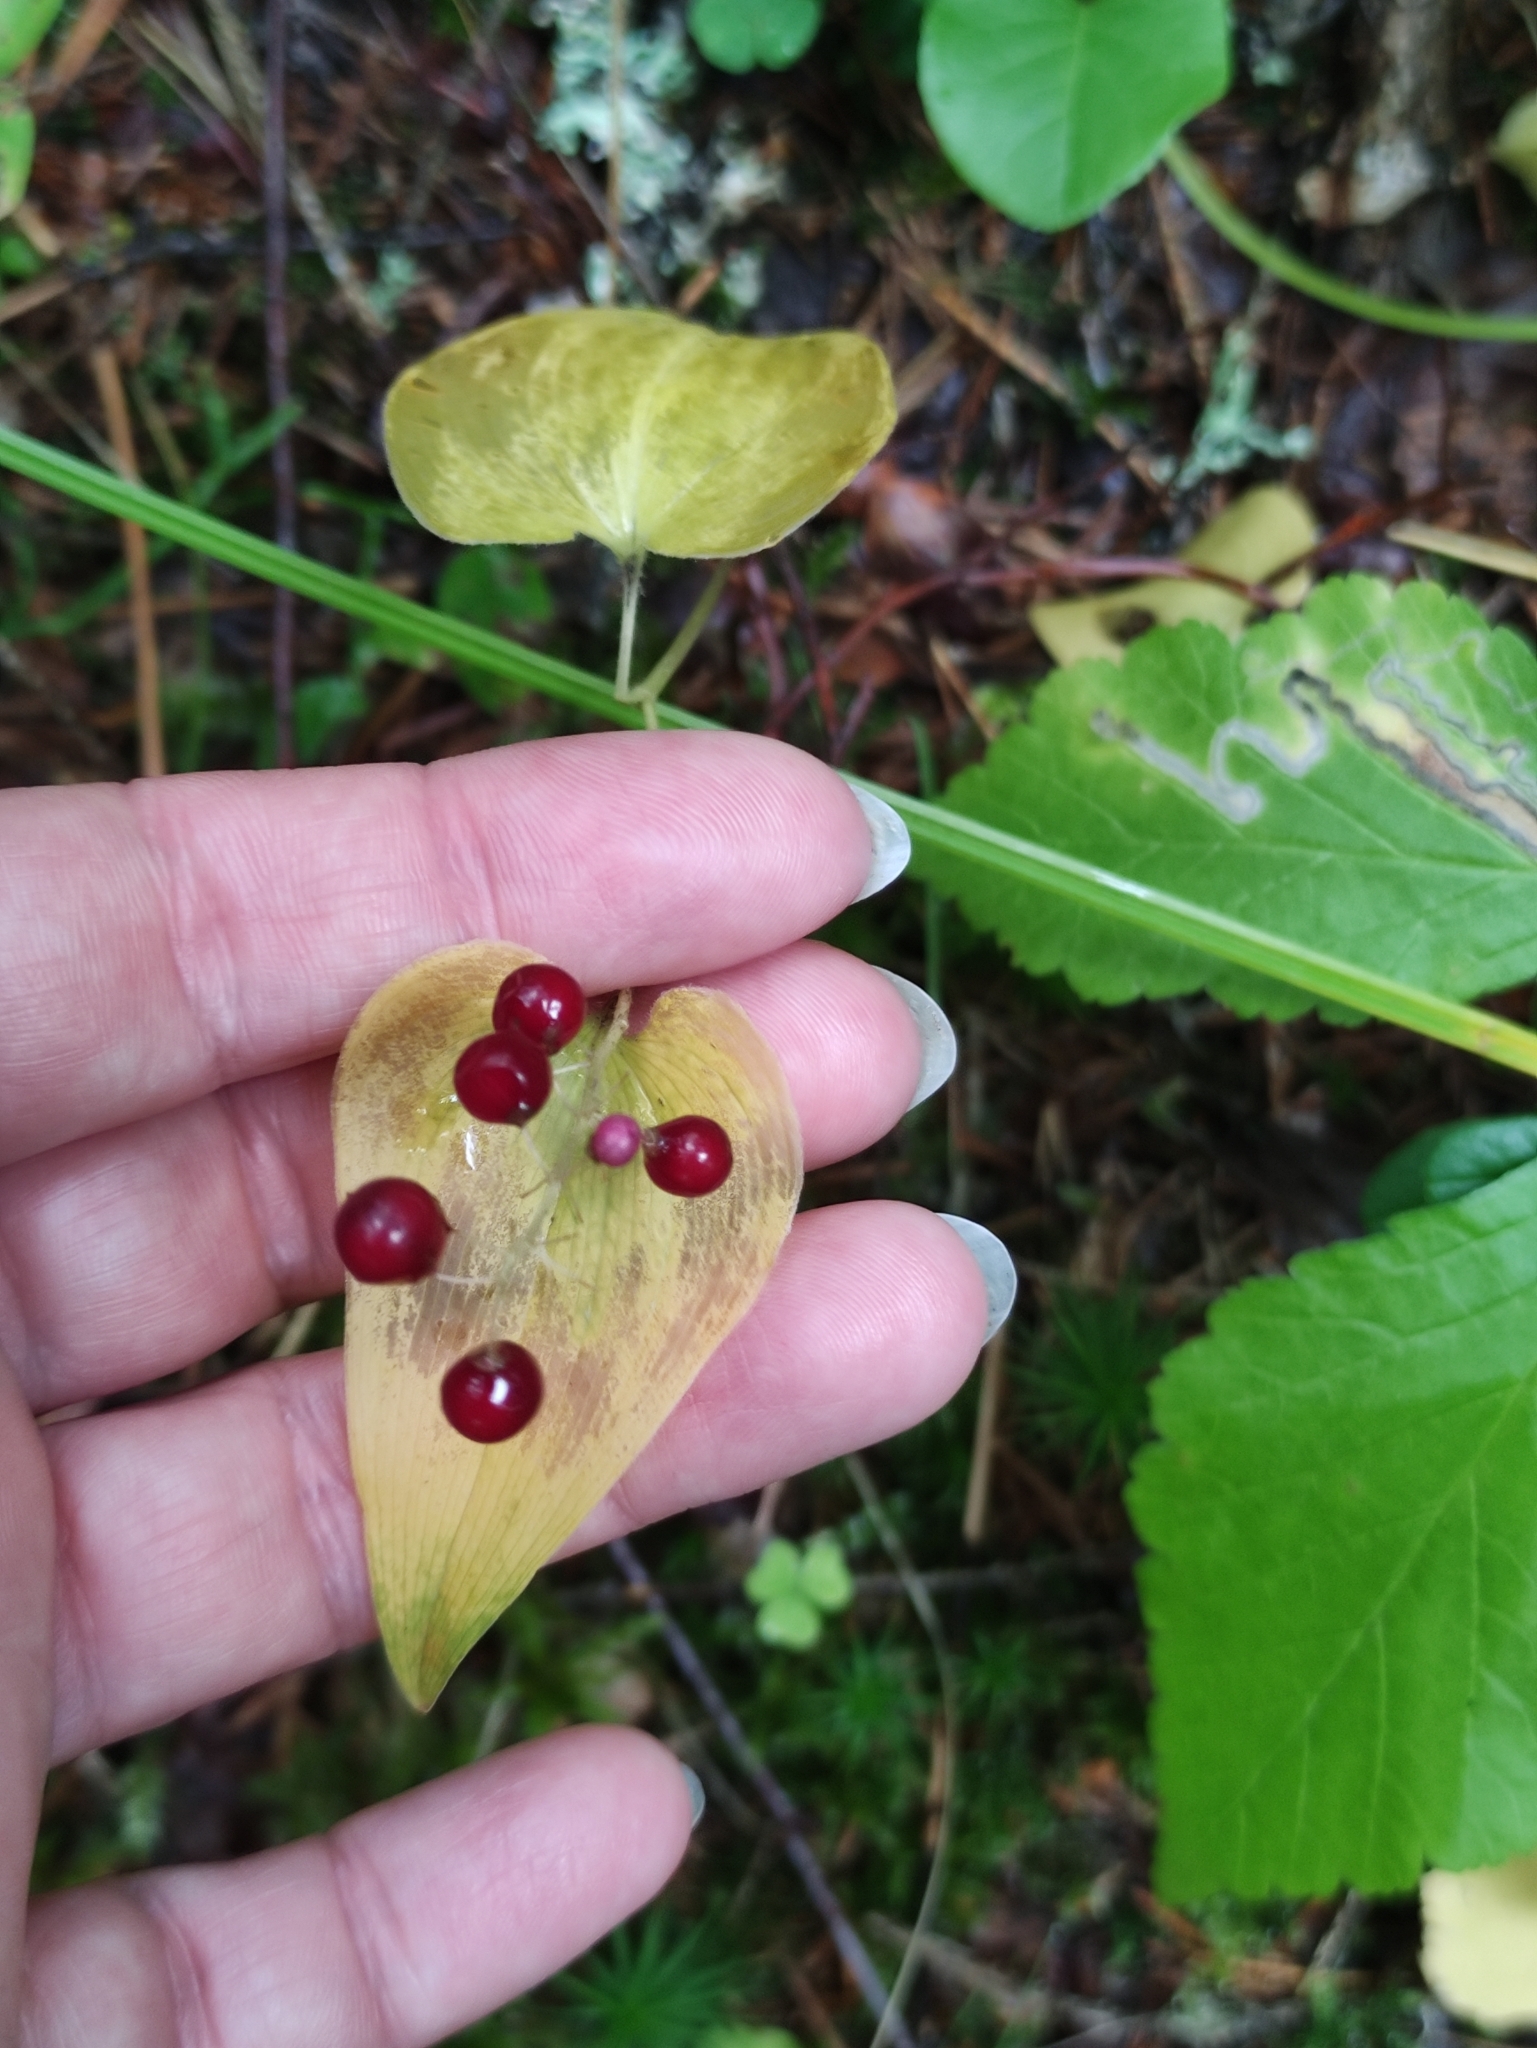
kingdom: Plantae
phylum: Tracheophyta
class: Liliopsida
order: Asparagales
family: Asparagaceae
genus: Maianthemum
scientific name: Maianthemum bifolium
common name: May lily
